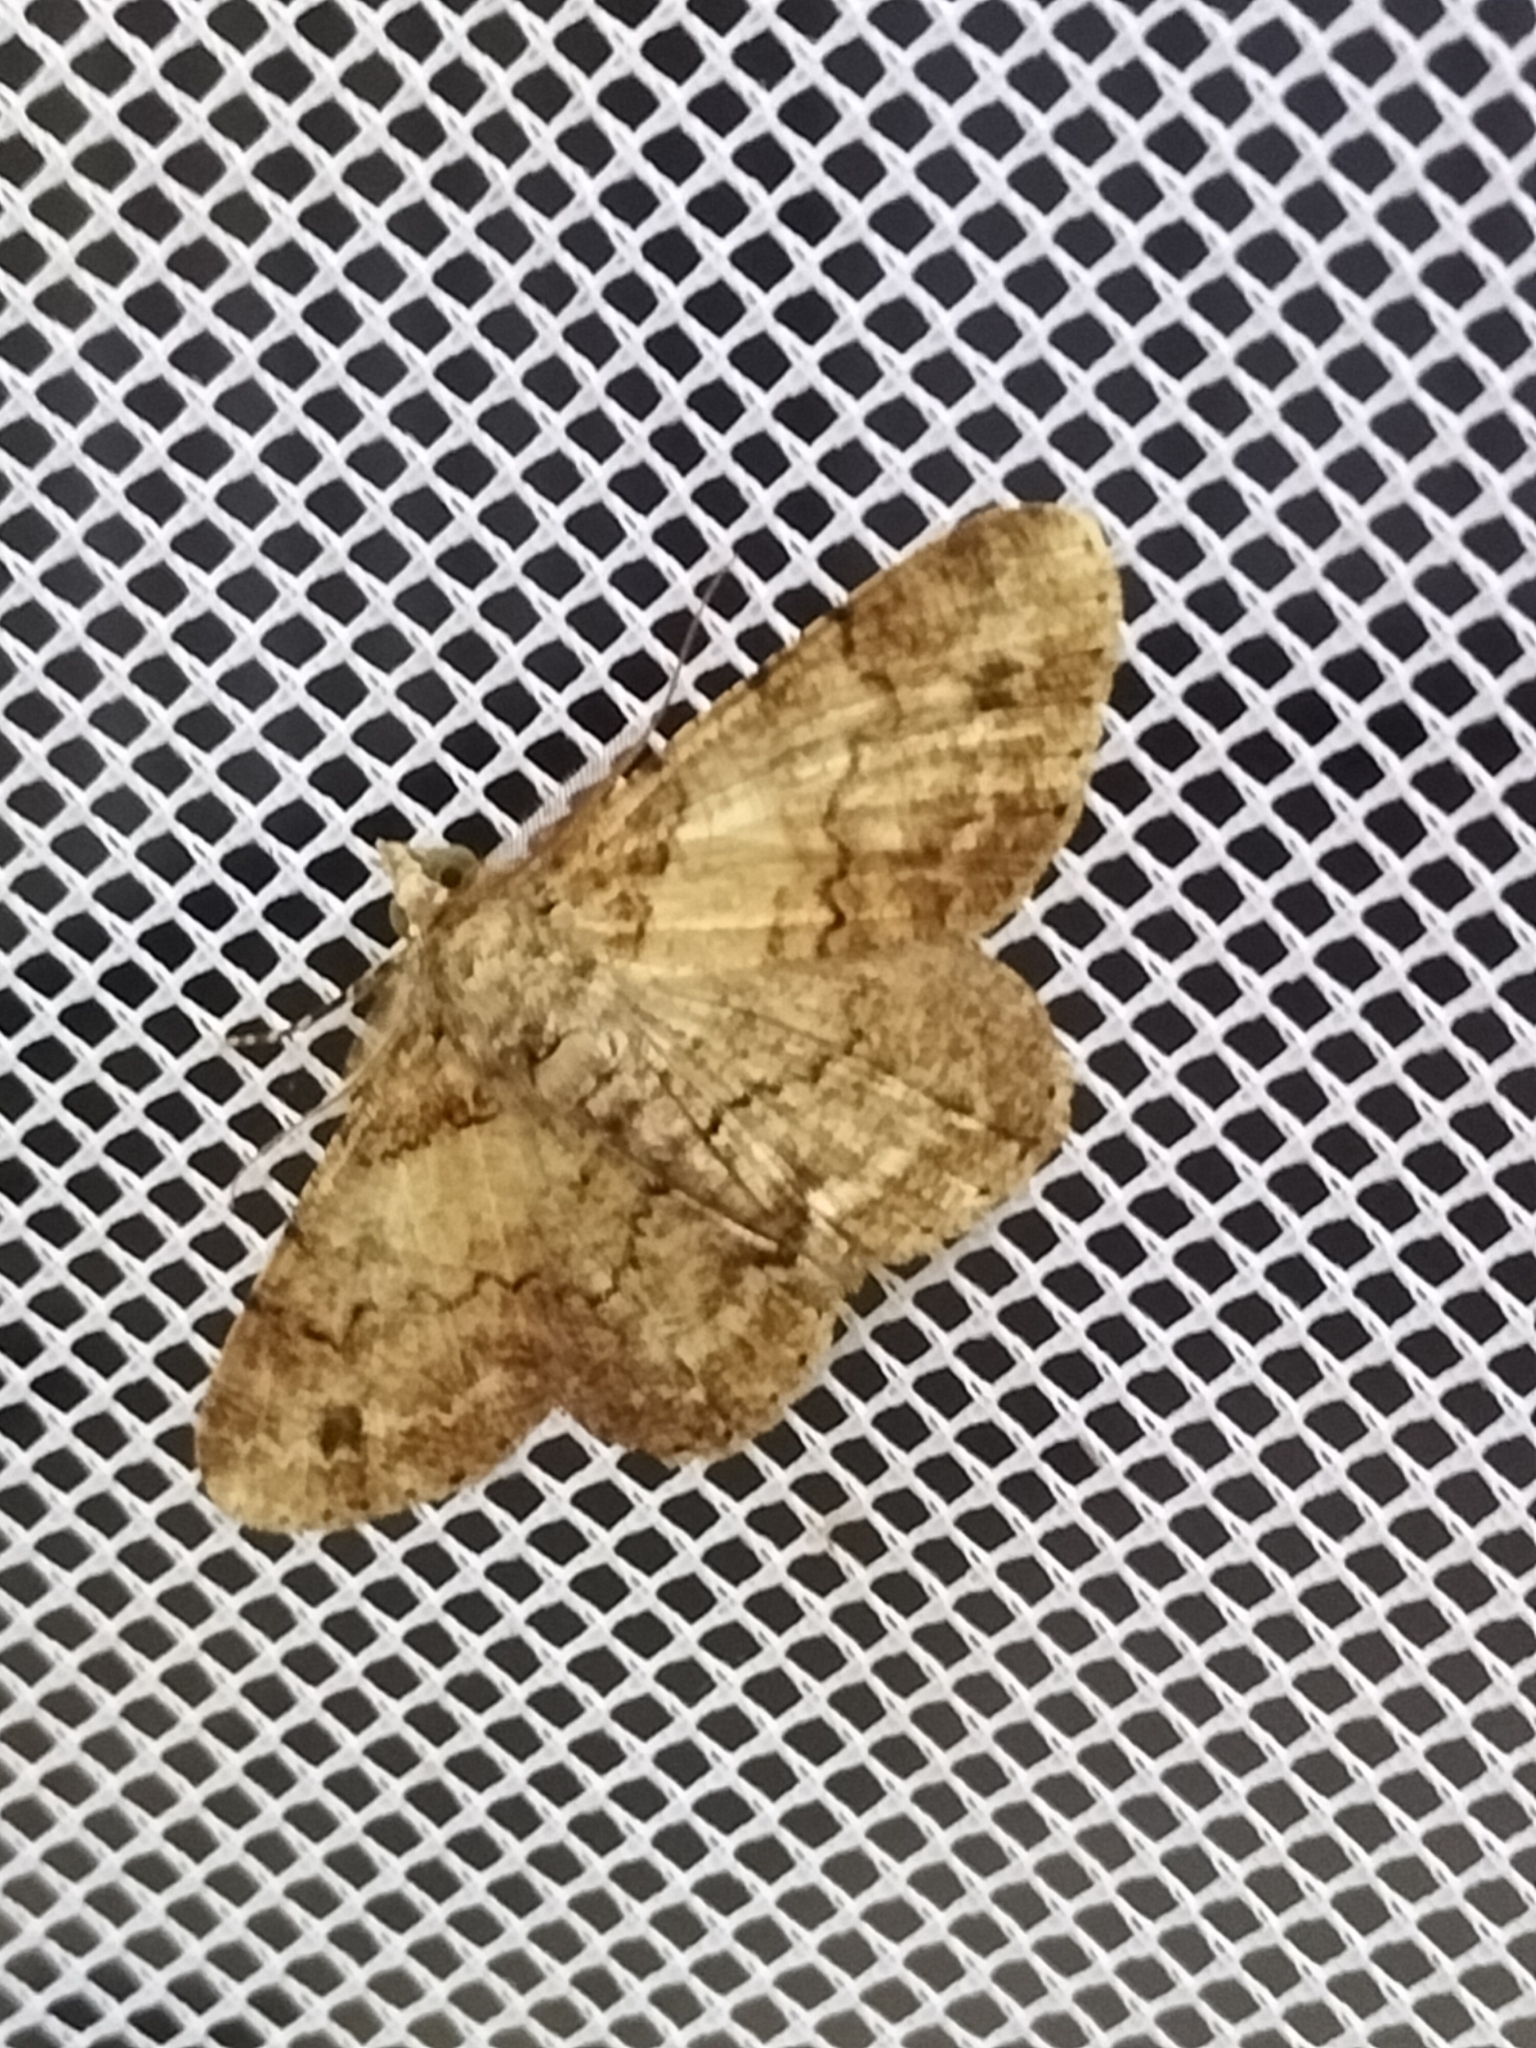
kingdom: Animalia
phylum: Arthropoda
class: Insecta
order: Lepidoptera
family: Geometridae
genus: Cleora
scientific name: Cleora repetita
